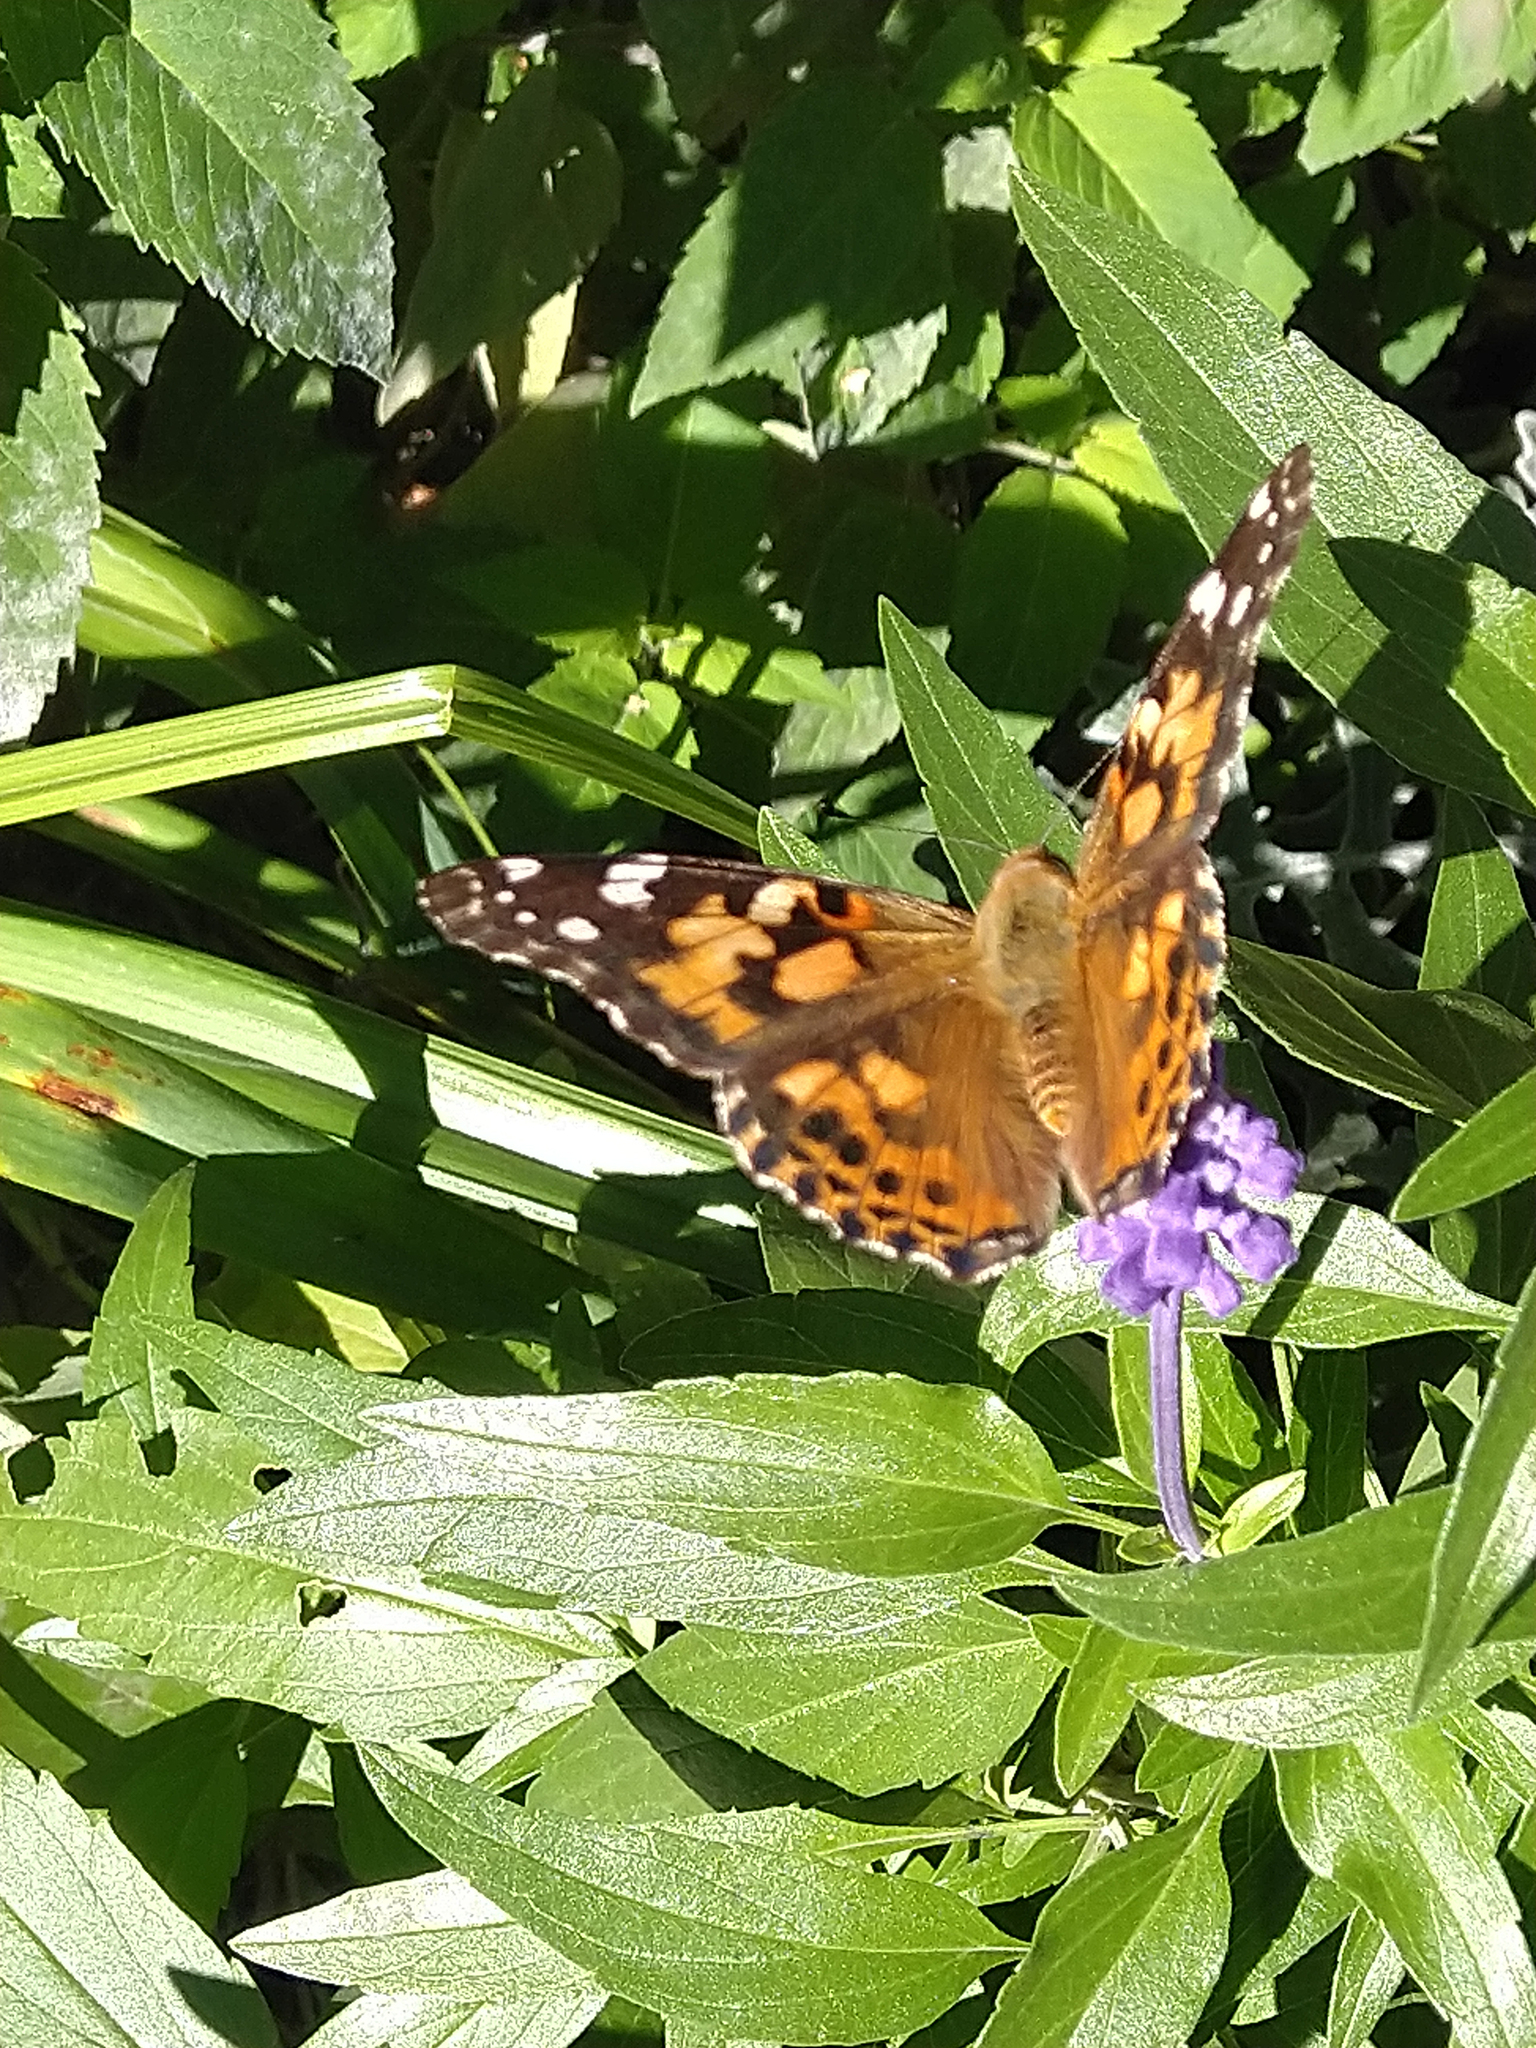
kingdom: Animalia
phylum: Arthropoda
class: Insecta
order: Lepidoptera
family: Nymphalidae
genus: Vanessa
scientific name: Vanessa cardui
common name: Painted lady
